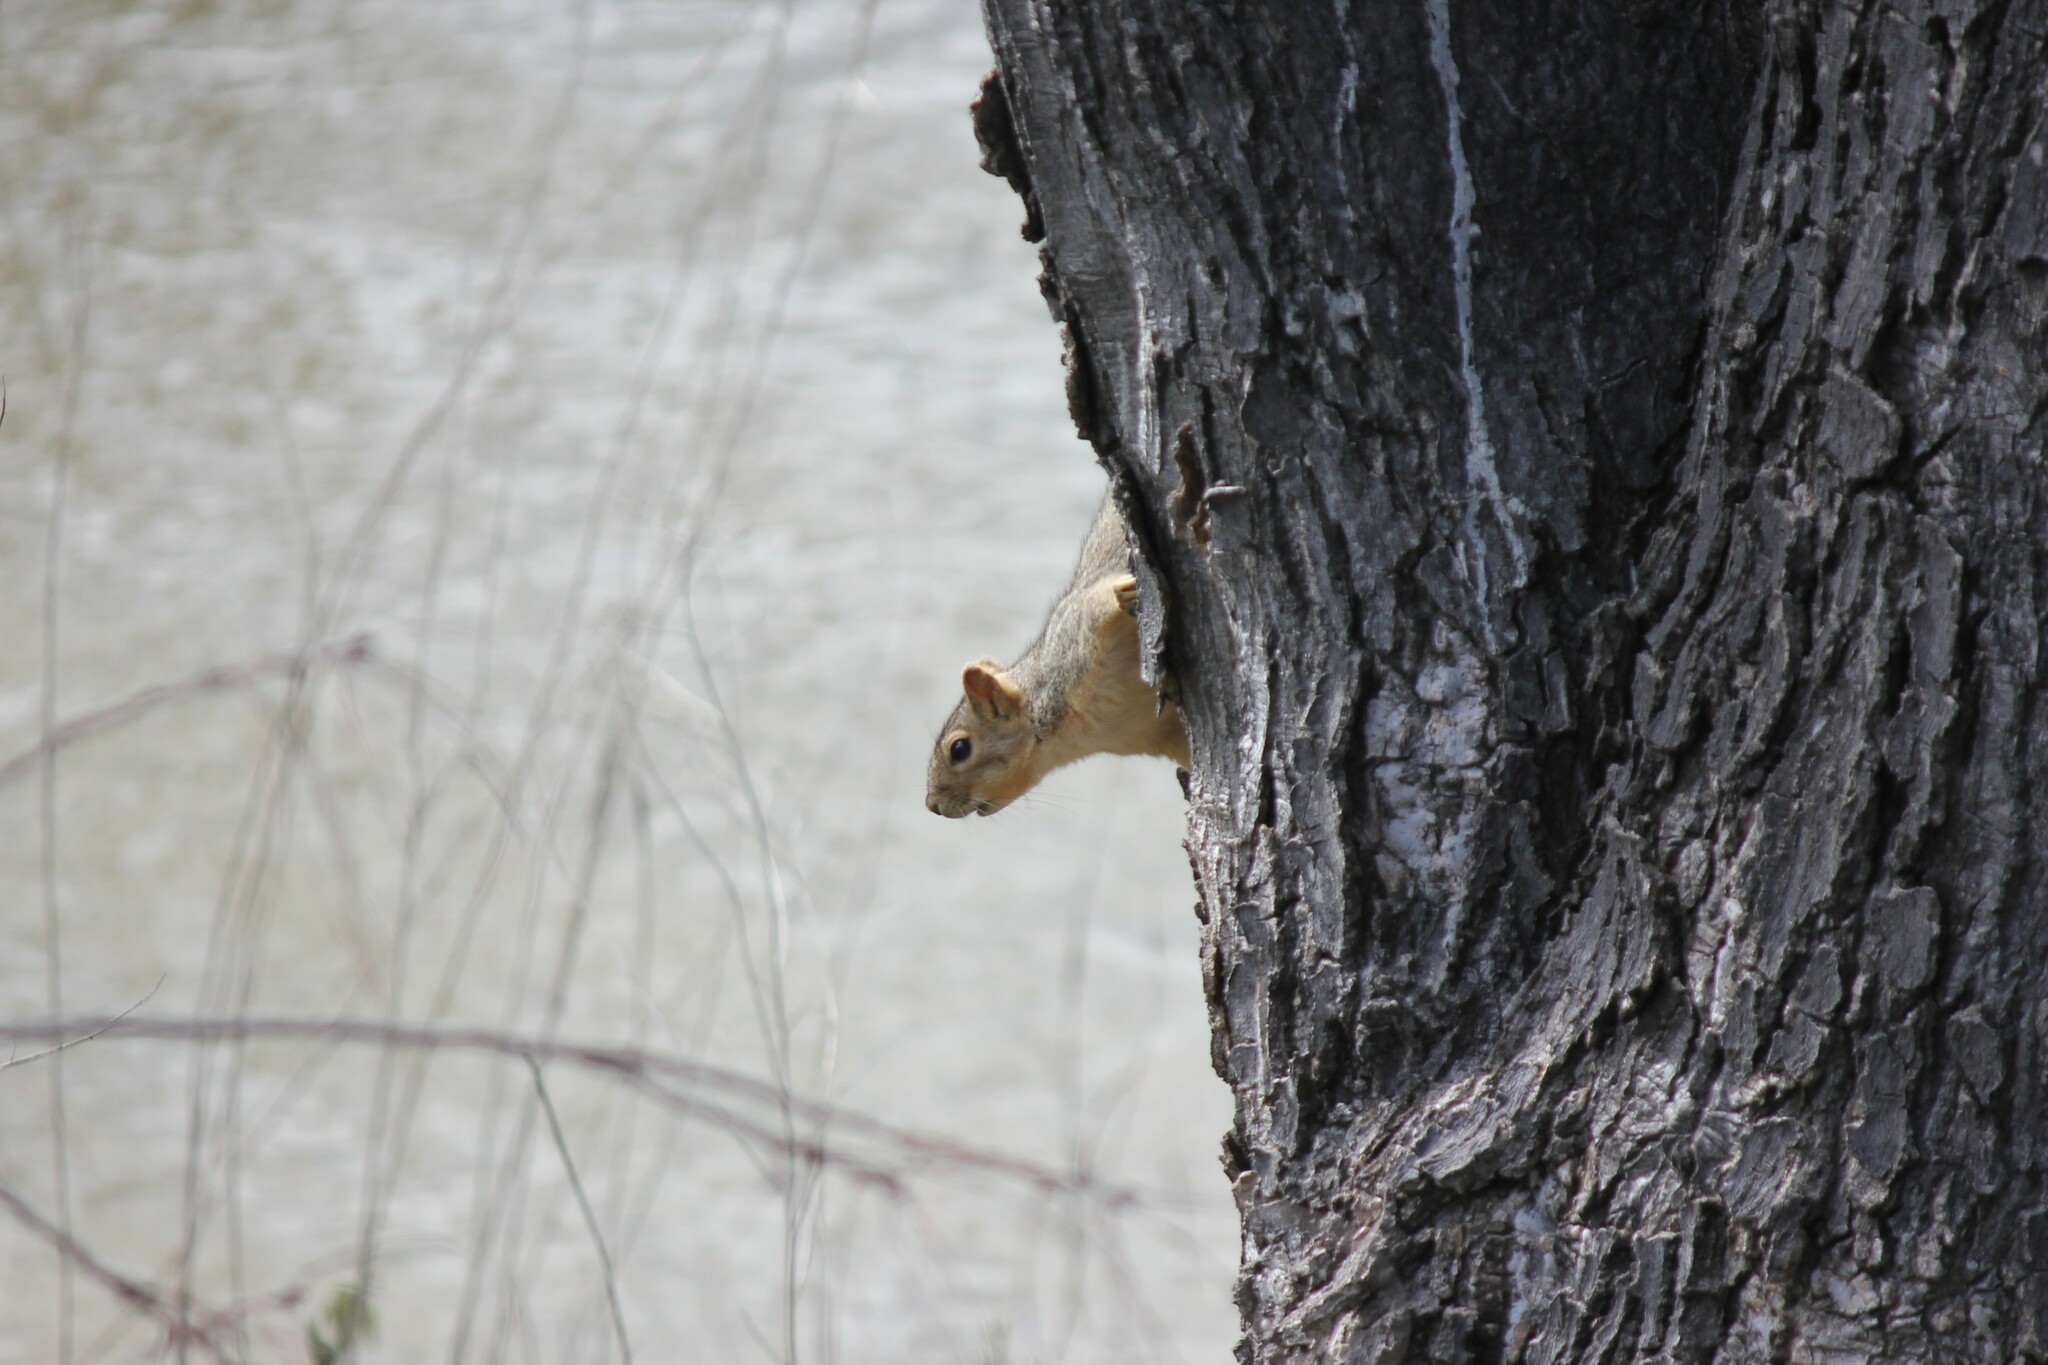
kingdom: Animalia
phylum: Chordata
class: Mammalia
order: Rodentia
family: Sciuridae
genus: Sciurus
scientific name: Sciurus niger
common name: Fox squirrel
